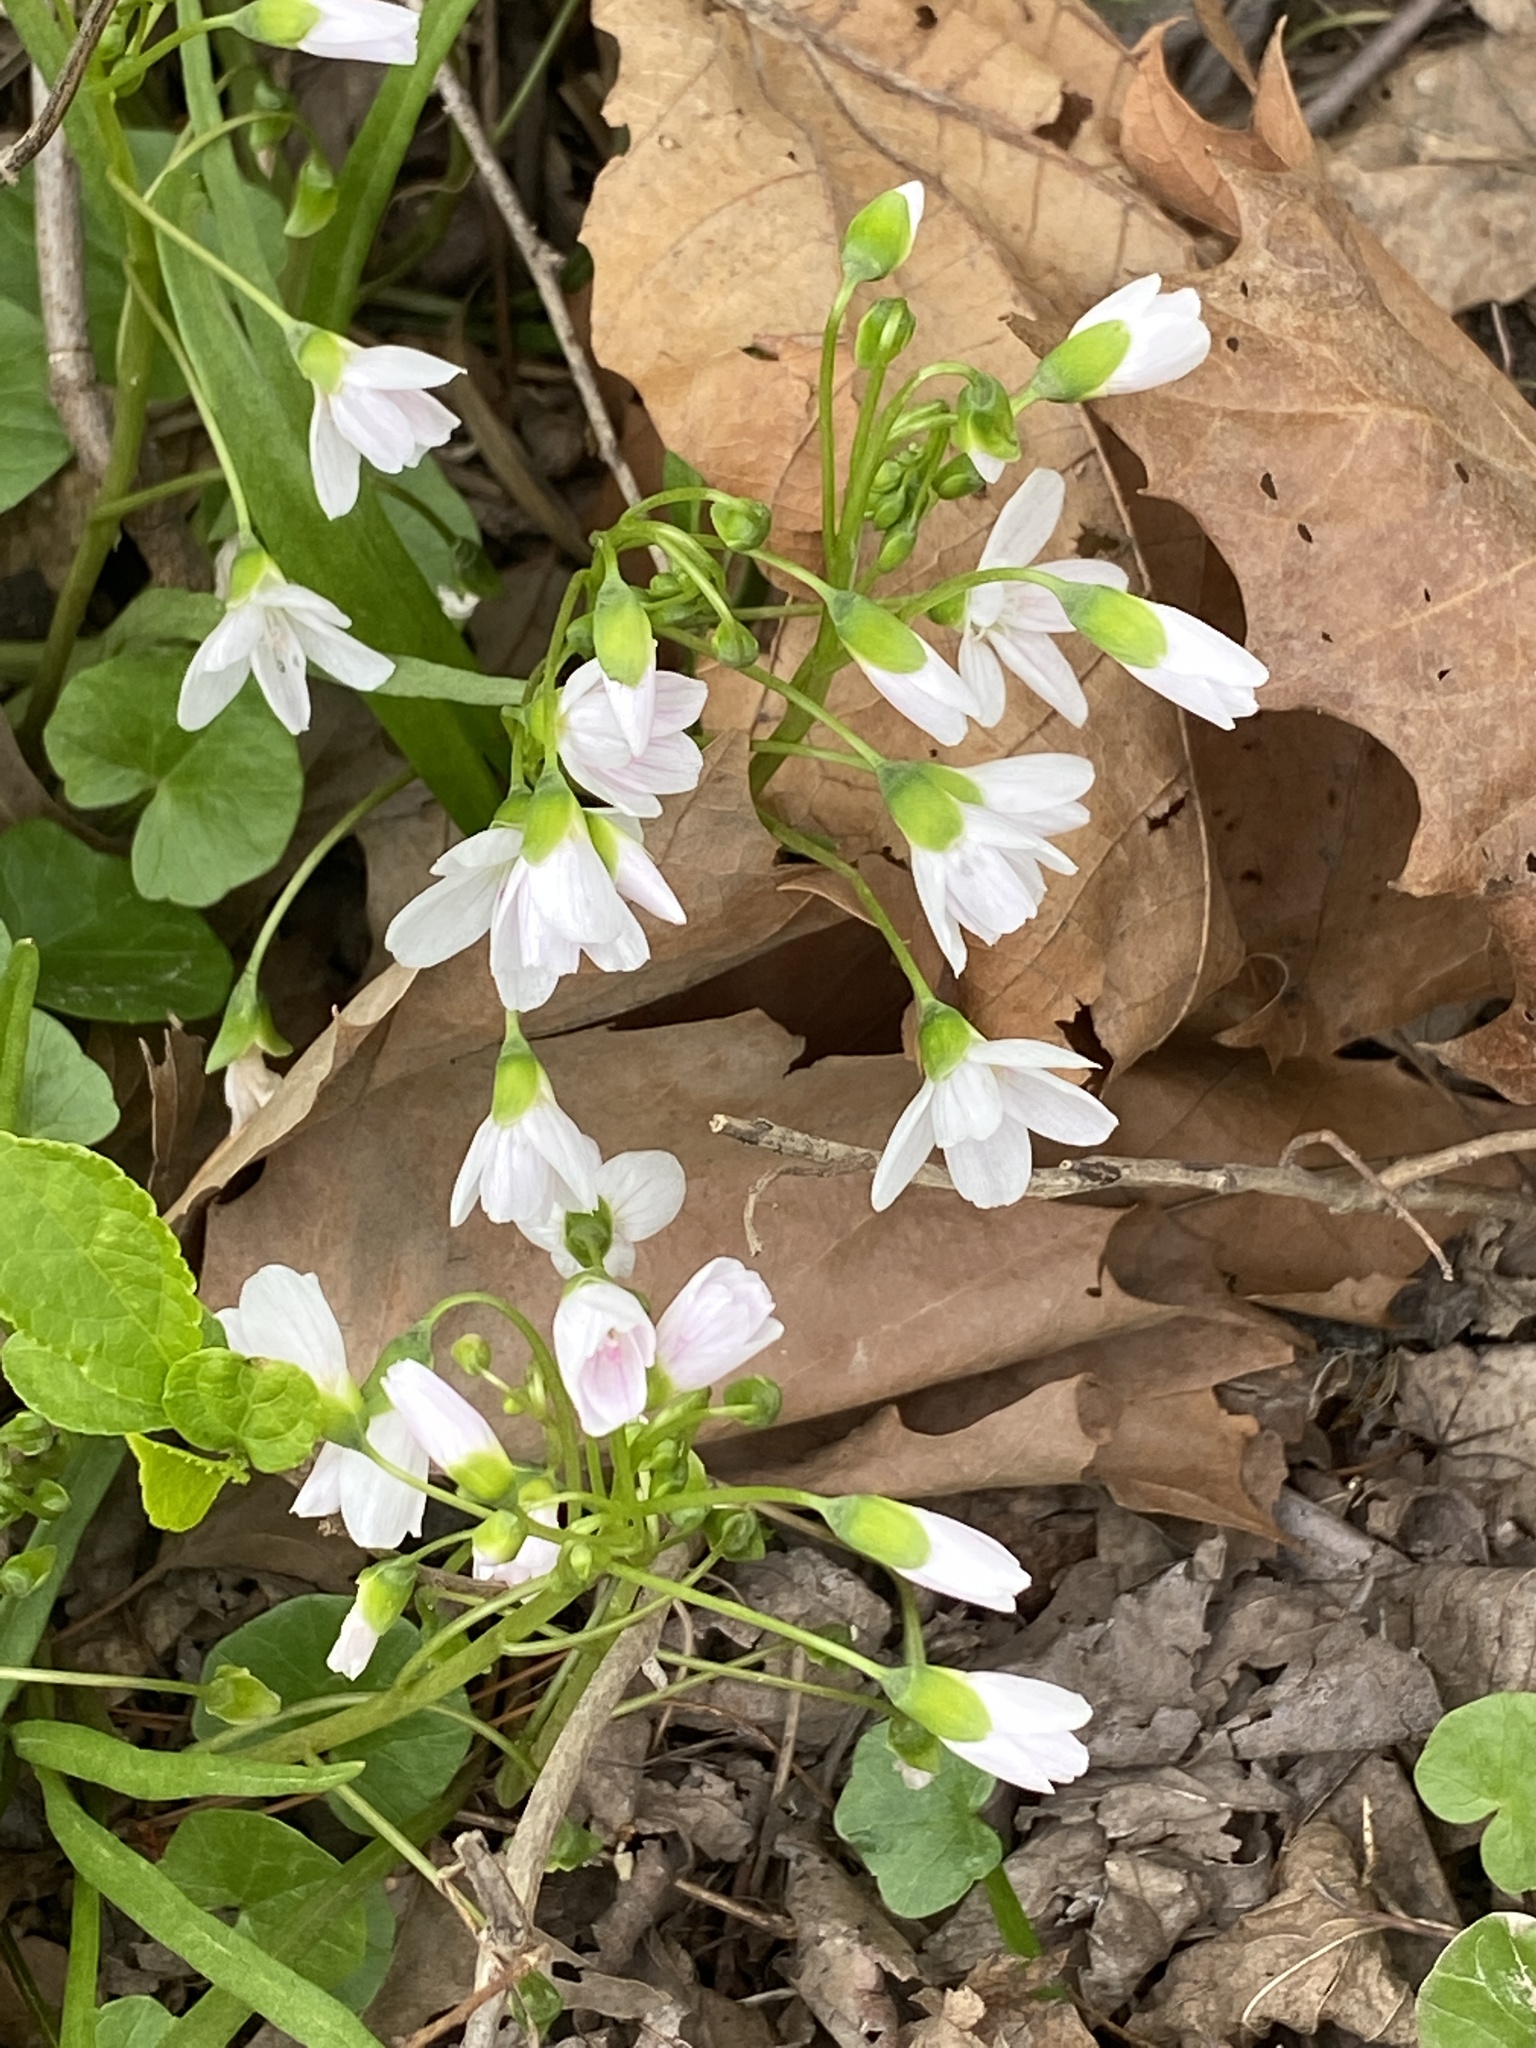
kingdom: Plantae
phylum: Tracheophyta
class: Magnoliopsida
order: Caryophyllales
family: Montiaceae
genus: Claytonia
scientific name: Claytonia virginica
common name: Virginia springbeauty
